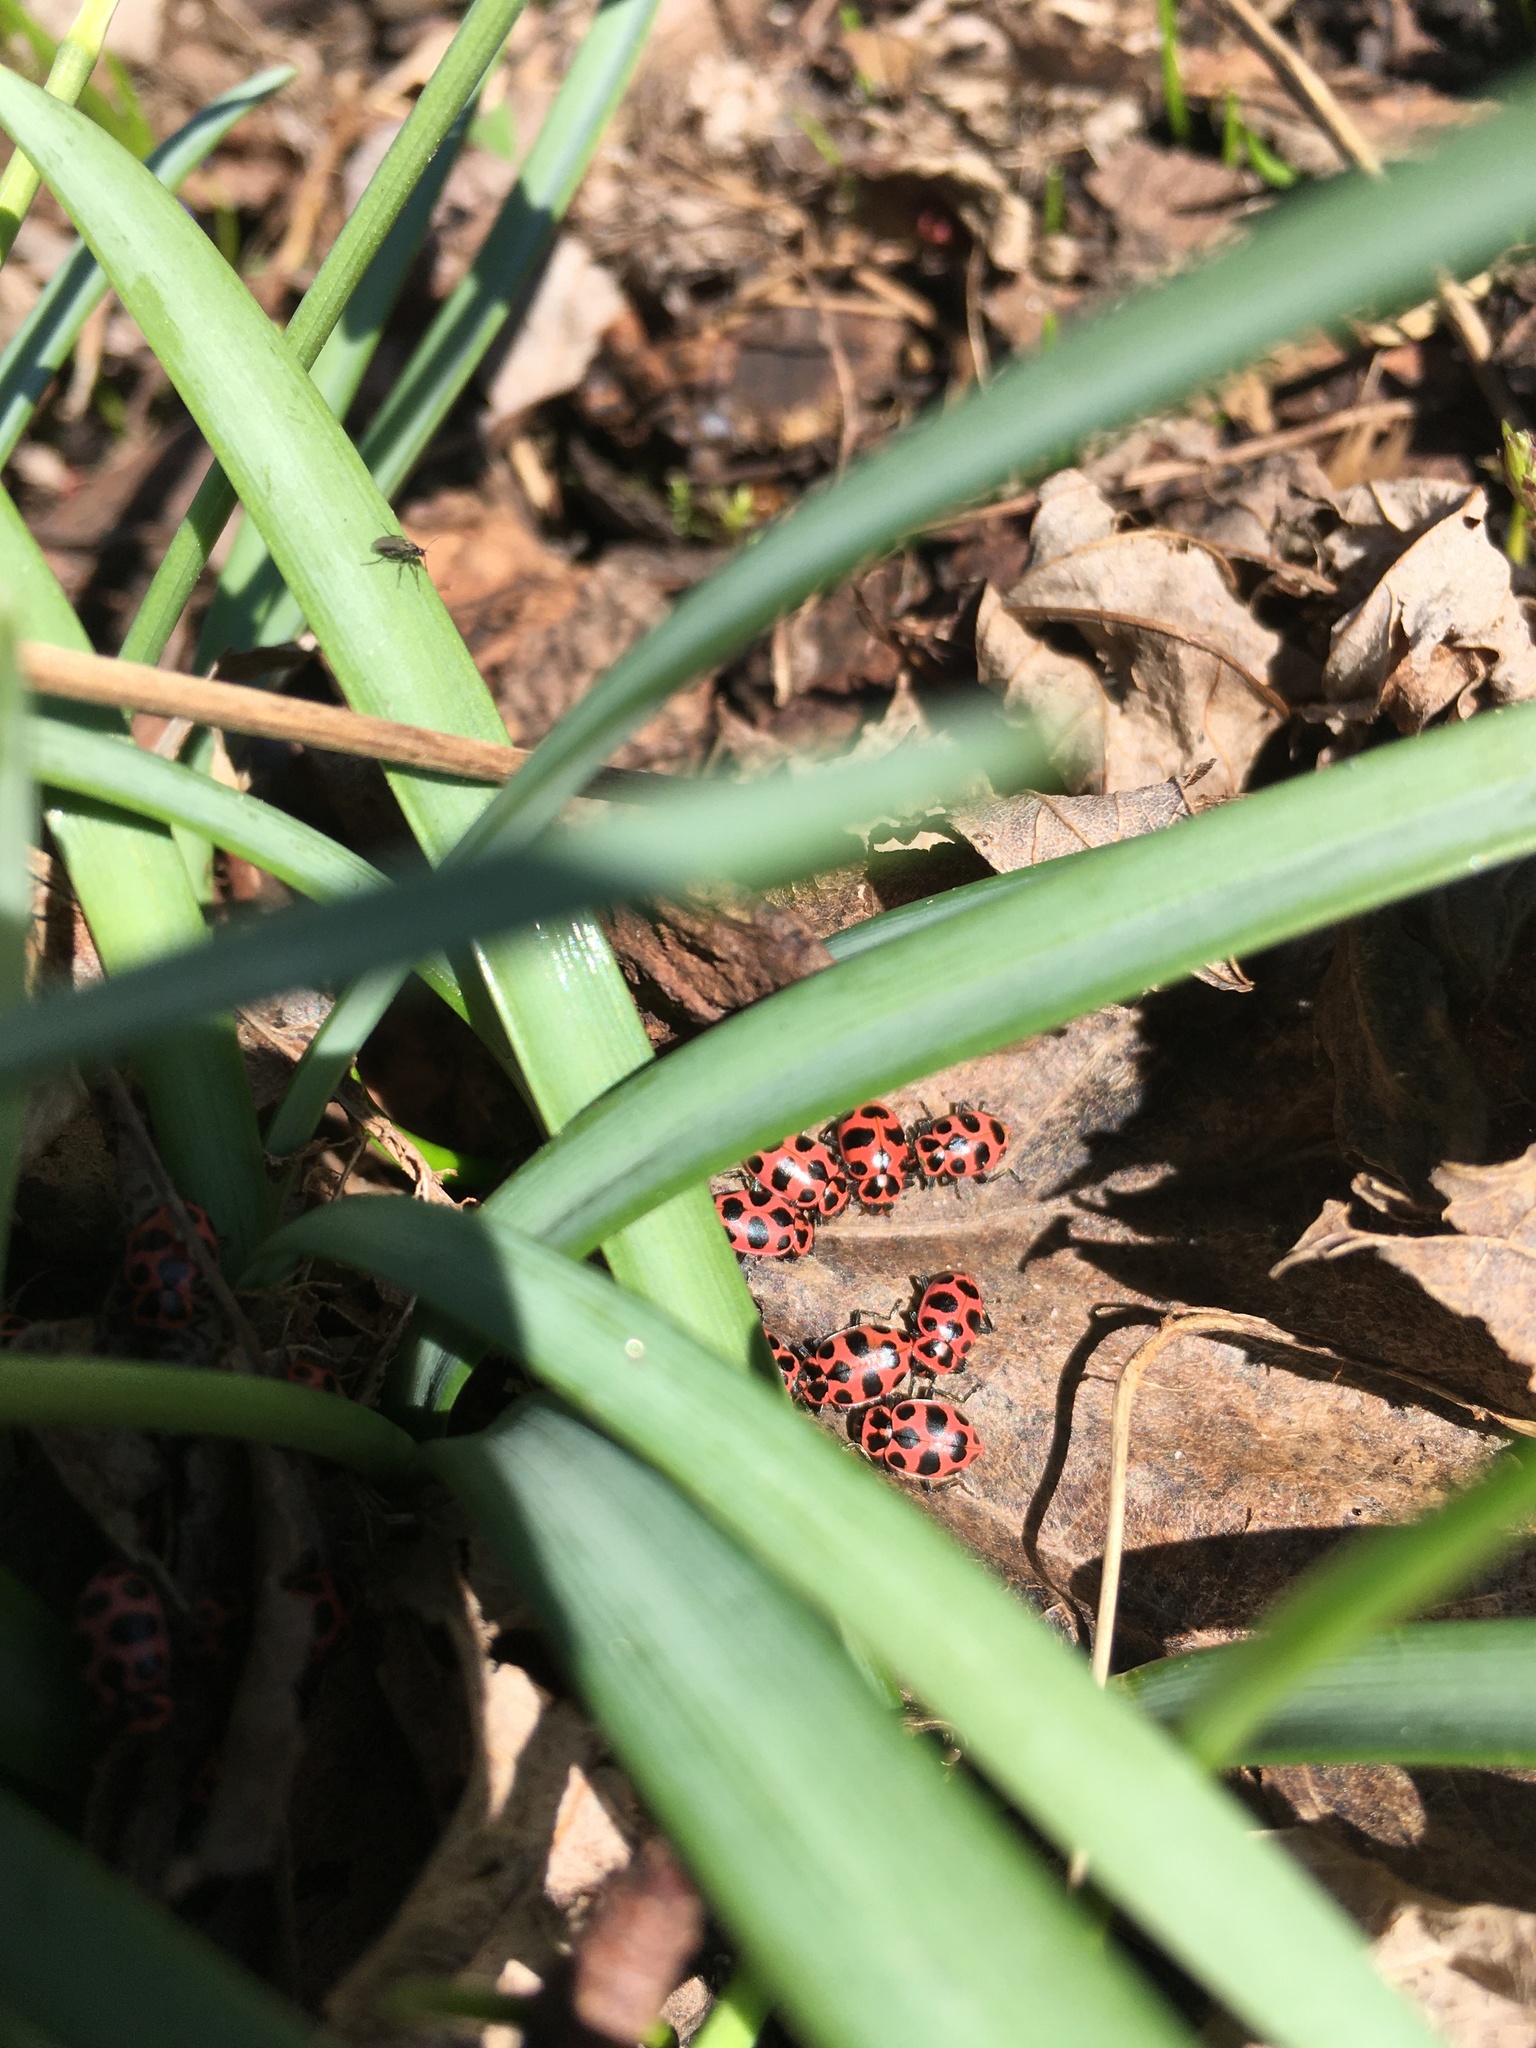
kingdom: Animalia
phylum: Arthropoda
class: Insecta
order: Coleoptera
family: Coccinellidae
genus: Coleomegilla
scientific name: Coleomegilla maculata
